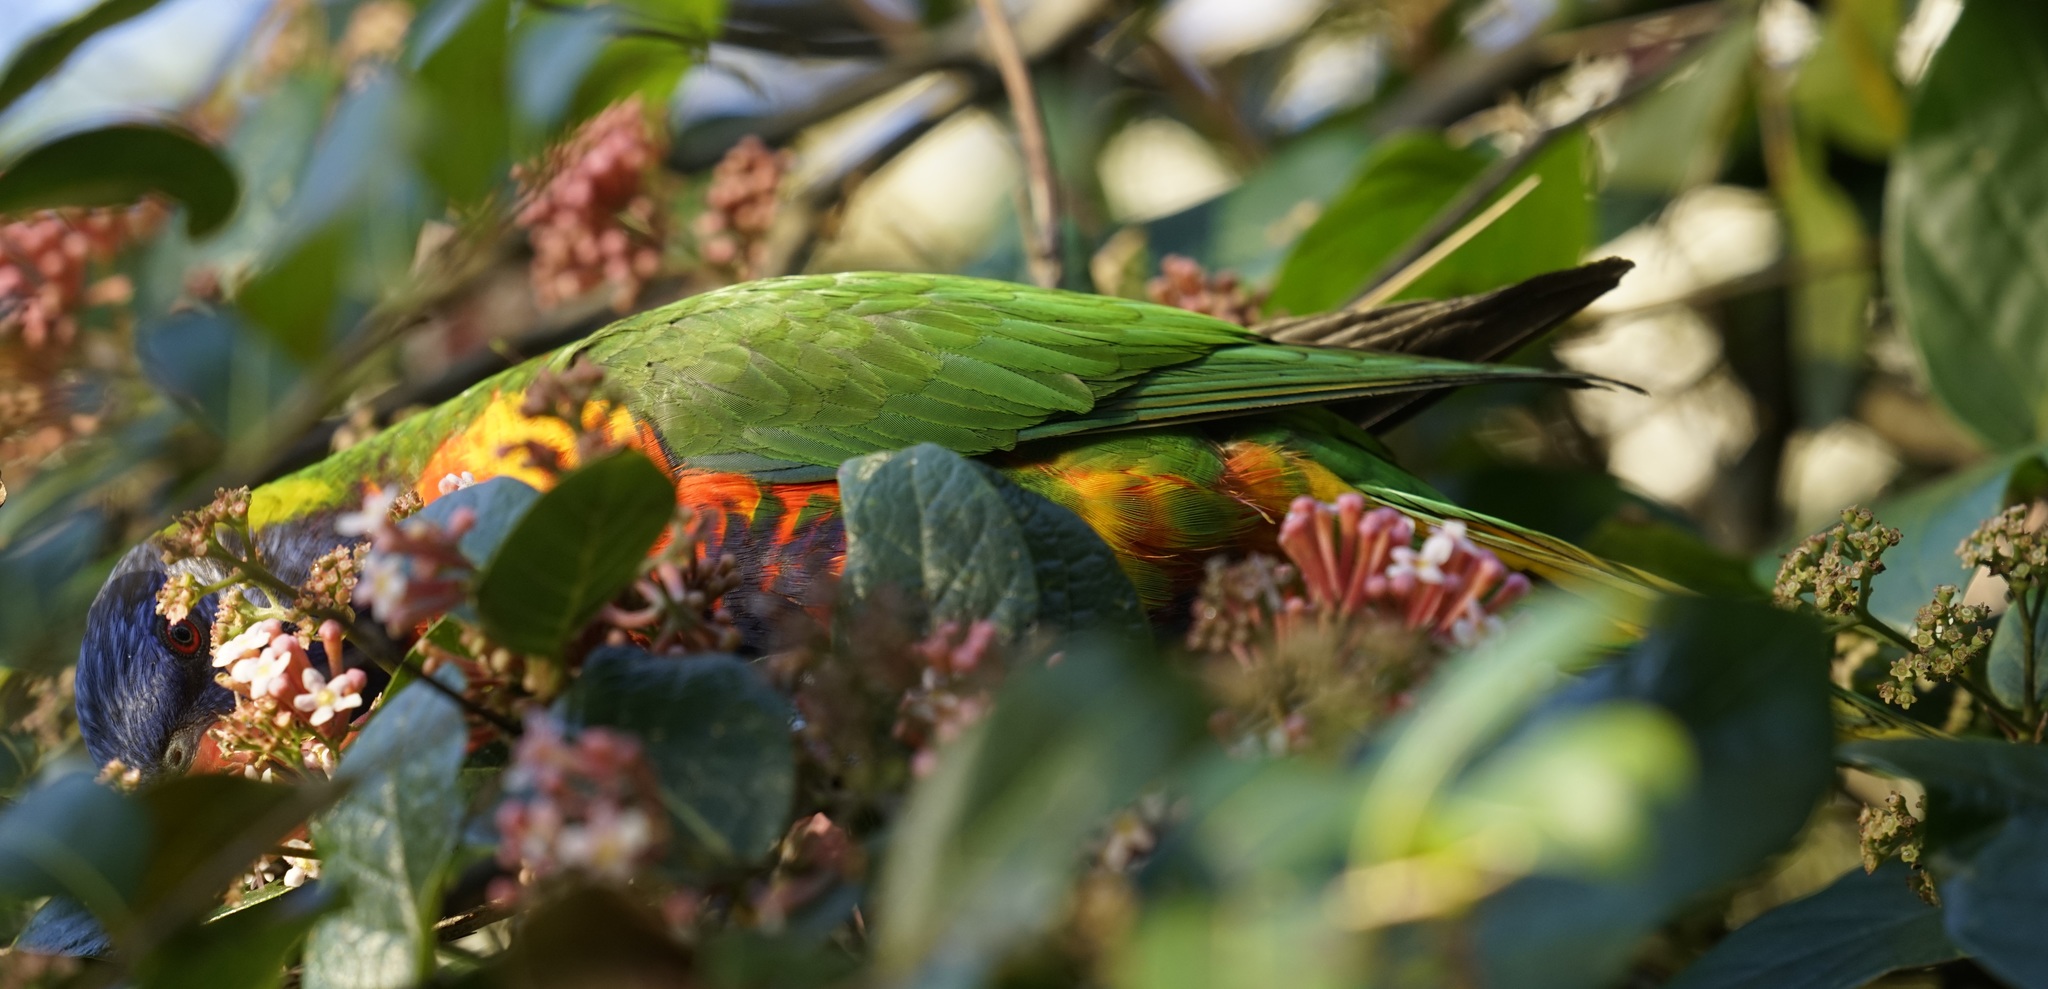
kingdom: Animalia
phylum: Chordata
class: Aves
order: Psittaciformes
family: Psittacidae
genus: Trichoglossus
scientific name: Trichoglossus haematodus
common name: Coconut lorikeet
